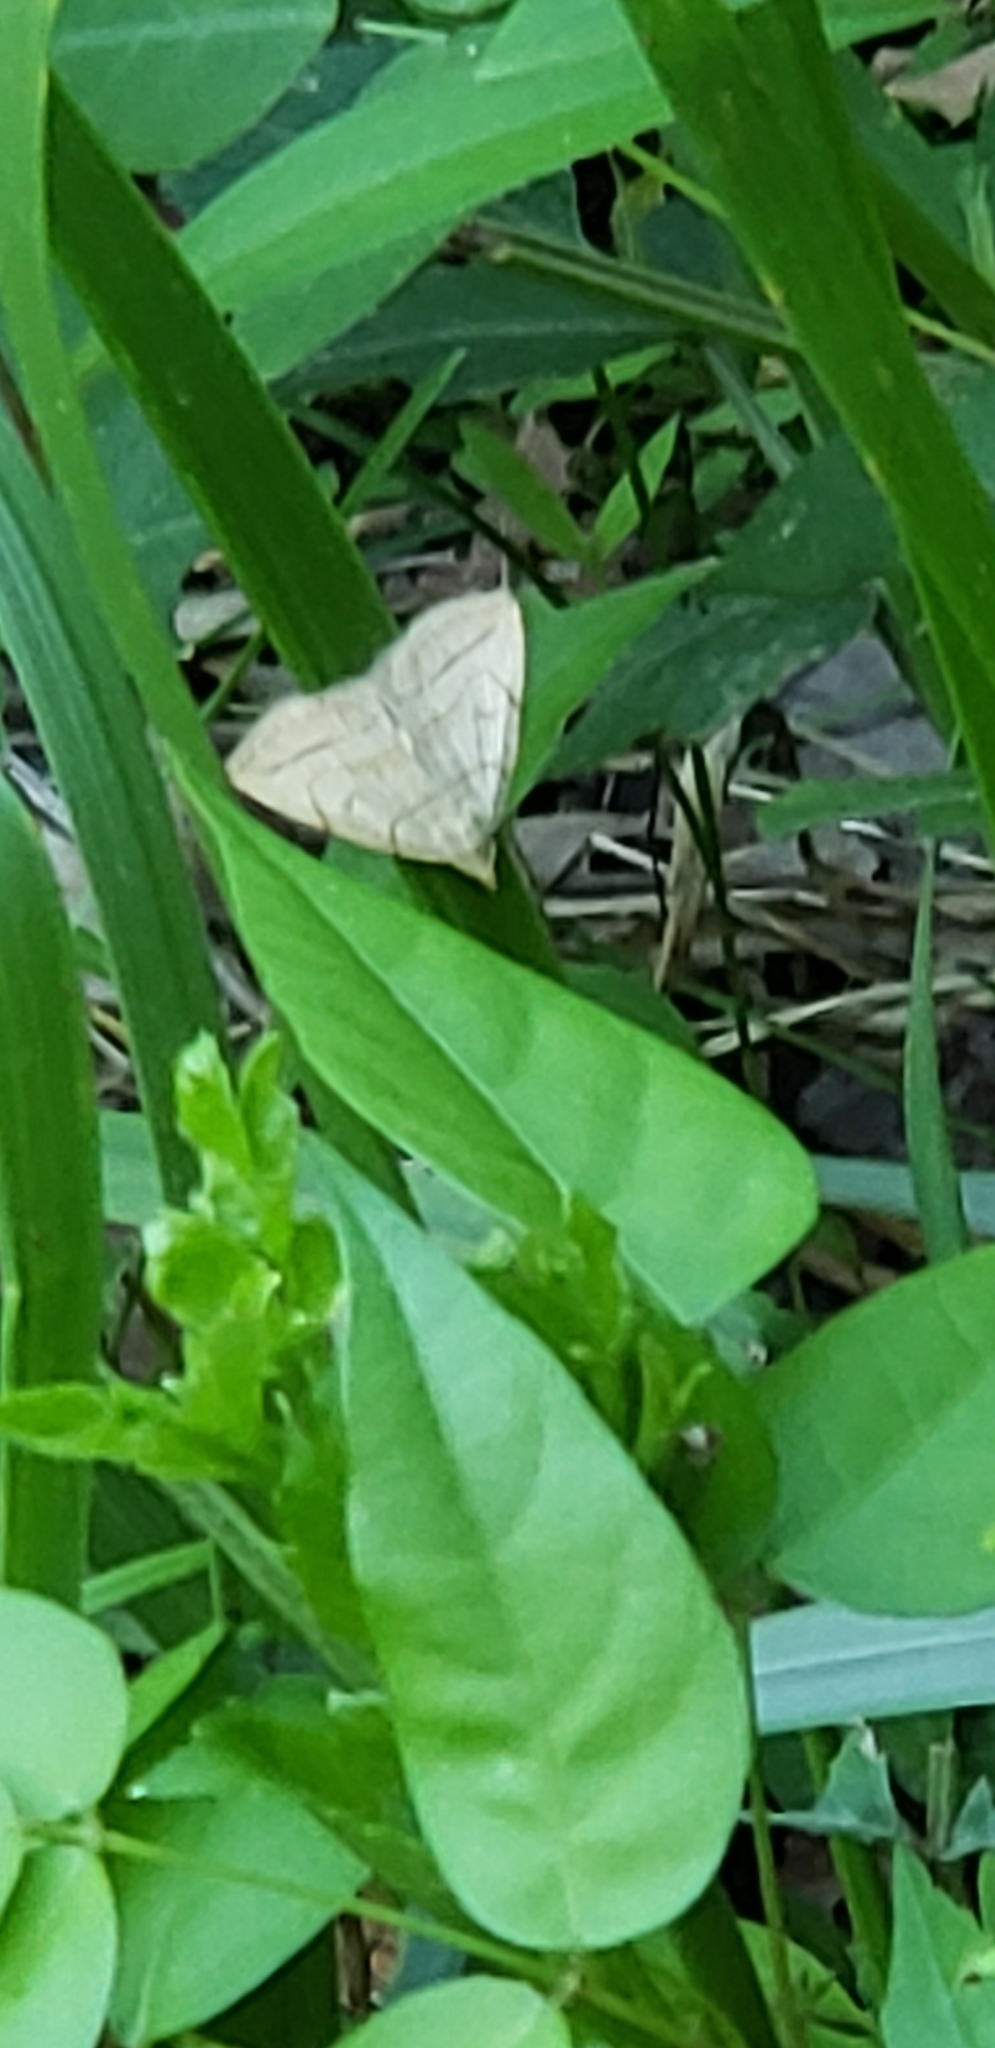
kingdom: Animalia
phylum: Arthropoda
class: Insecta
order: Lepidoptera
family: Erebidae
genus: Zanclognatha
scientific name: Zanclognatha pedipilalis
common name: Grayish fan-foot
